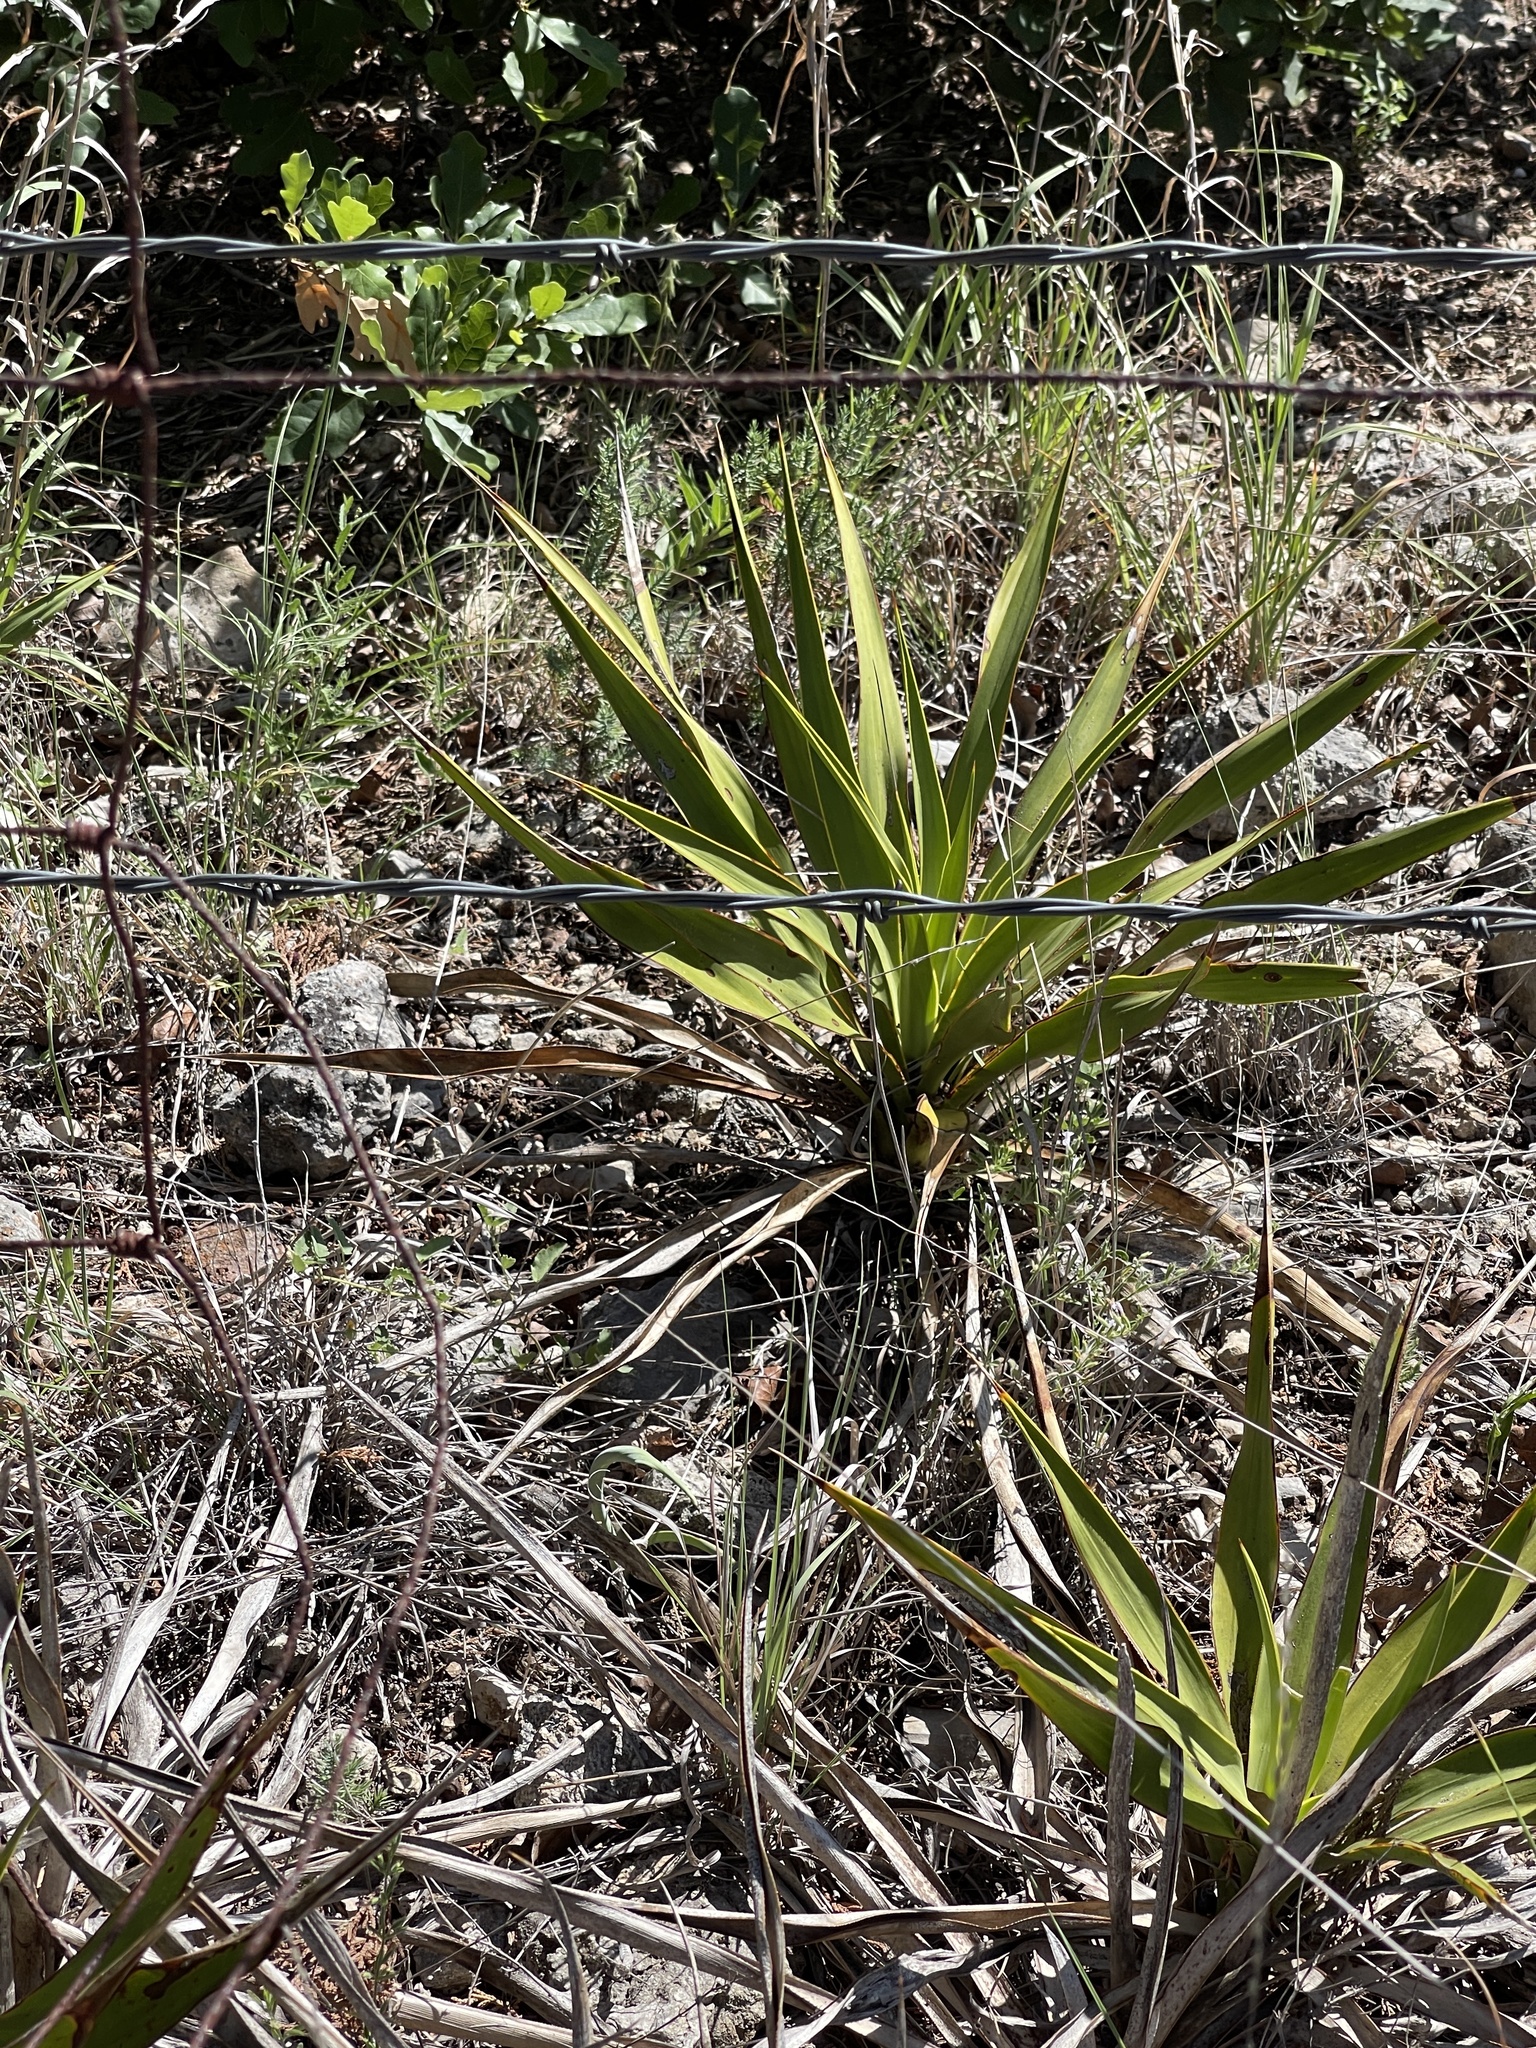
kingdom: Plantae
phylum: Tracheophyta
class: Liliopsida
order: Asparagales
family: Asparagaceae
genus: Yucca
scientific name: Yucca rupicola
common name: Twisted-leaf spanish-dagger
